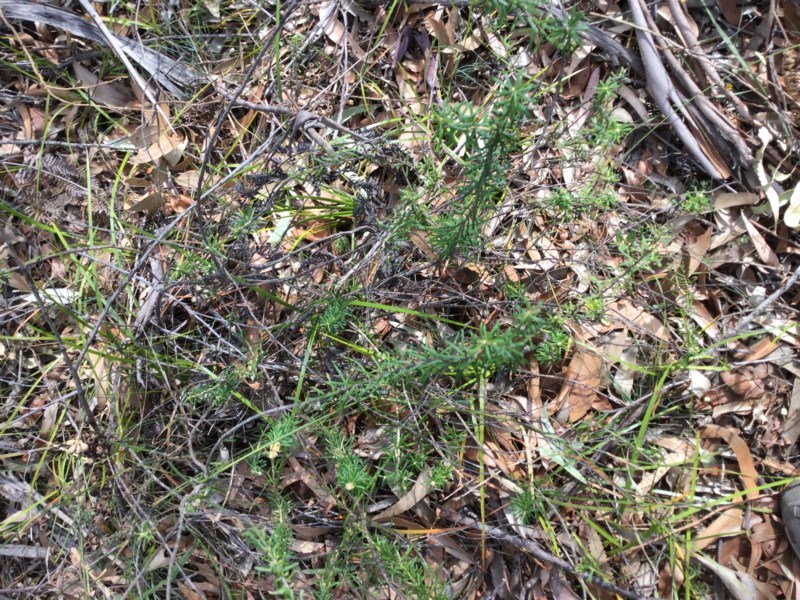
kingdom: Plantae
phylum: Tracheophyta
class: Magnoliopsida
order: Apiales
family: Araliaceae
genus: Astrotricha
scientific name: Astrotricha
